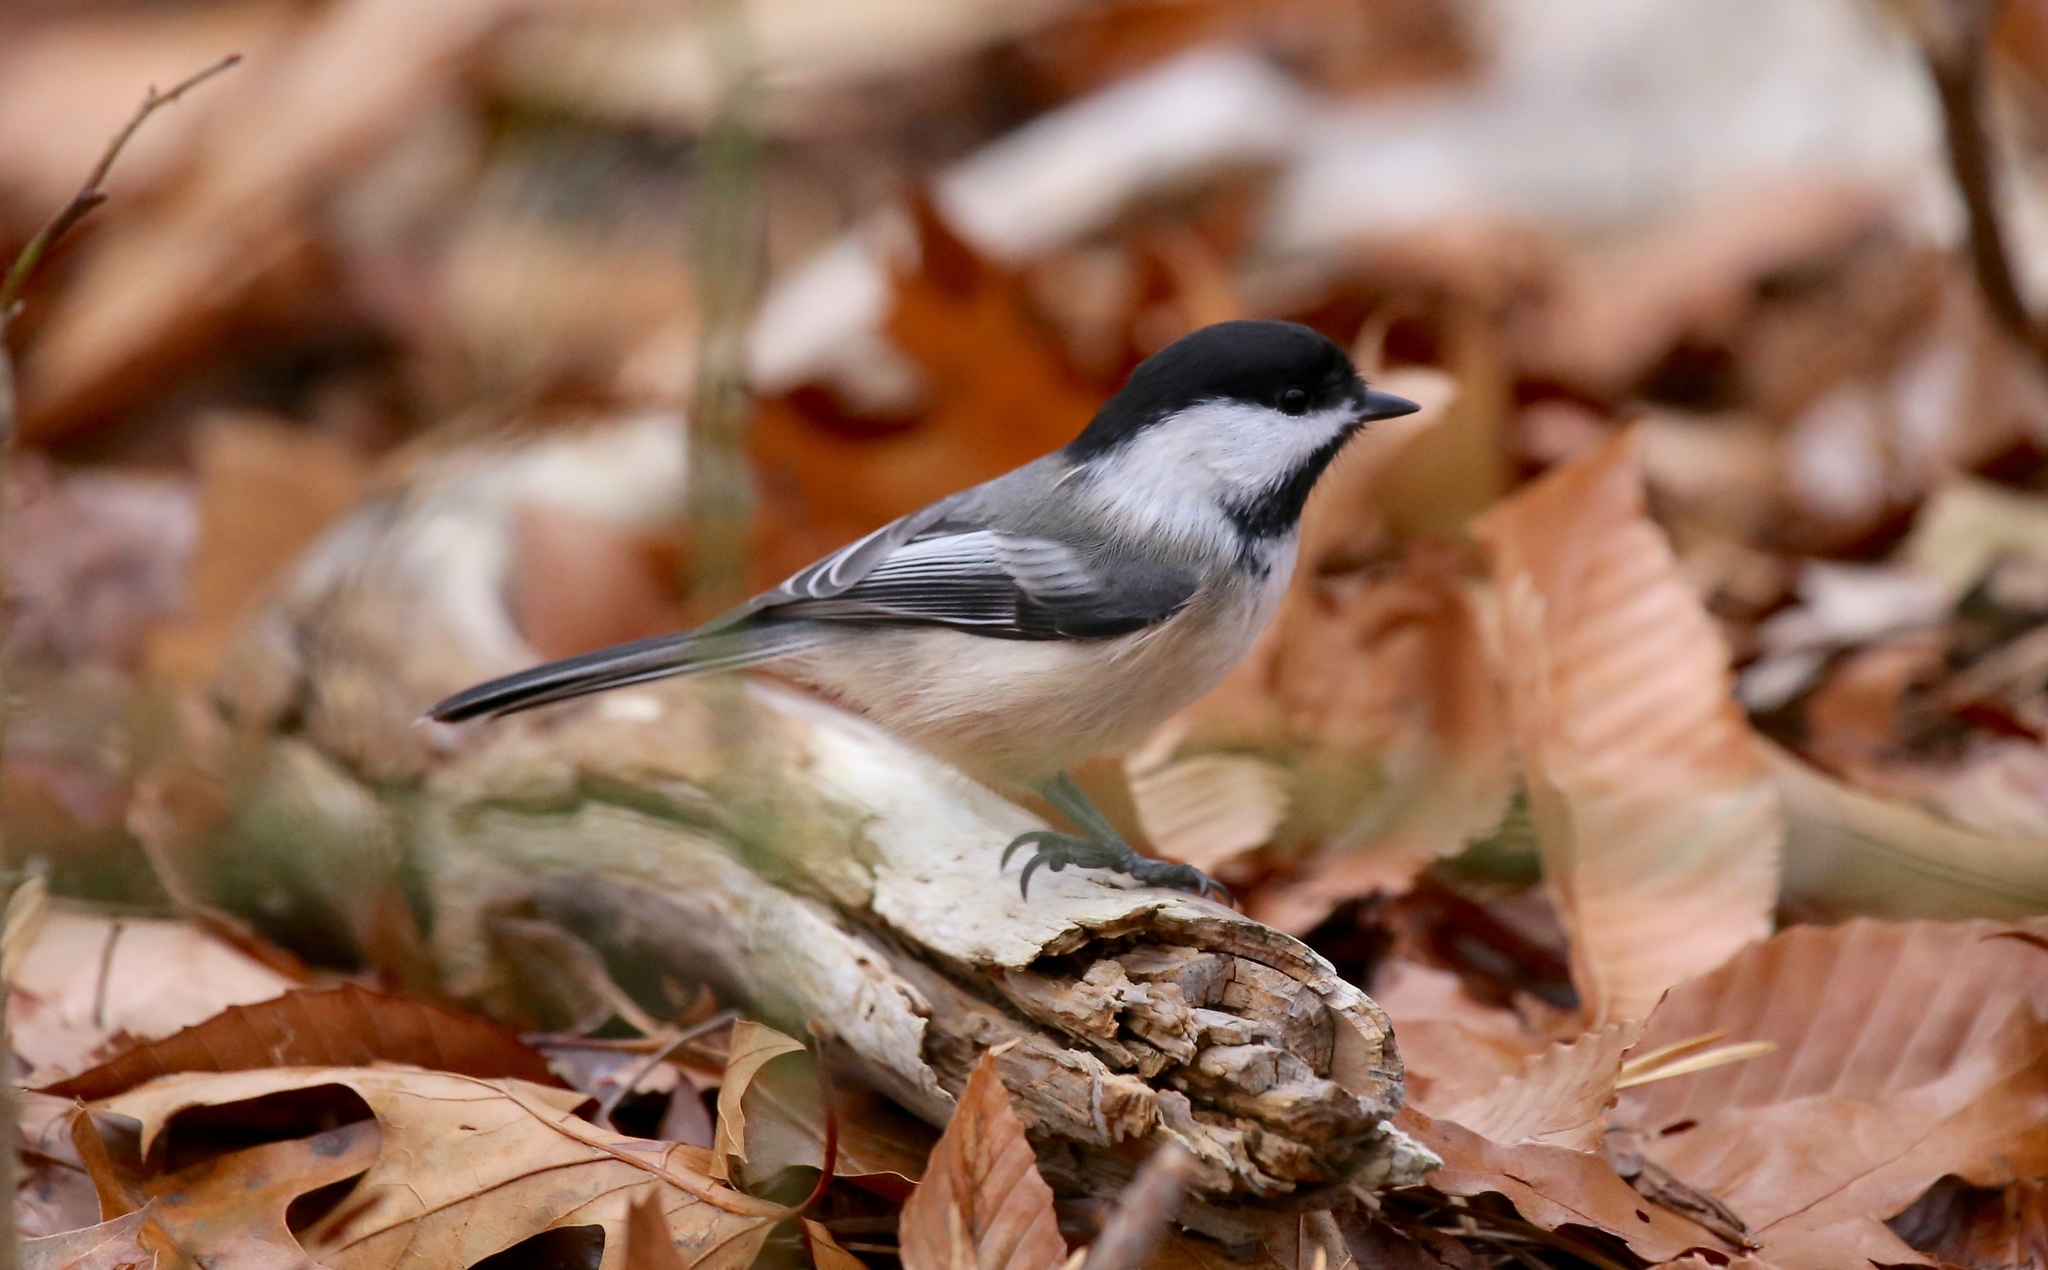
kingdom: Animalia
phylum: Chordata
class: Aves
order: Passeriformes
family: Paridae
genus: Poecile
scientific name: Poecile atricapillus
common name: Black-capped chickadee
